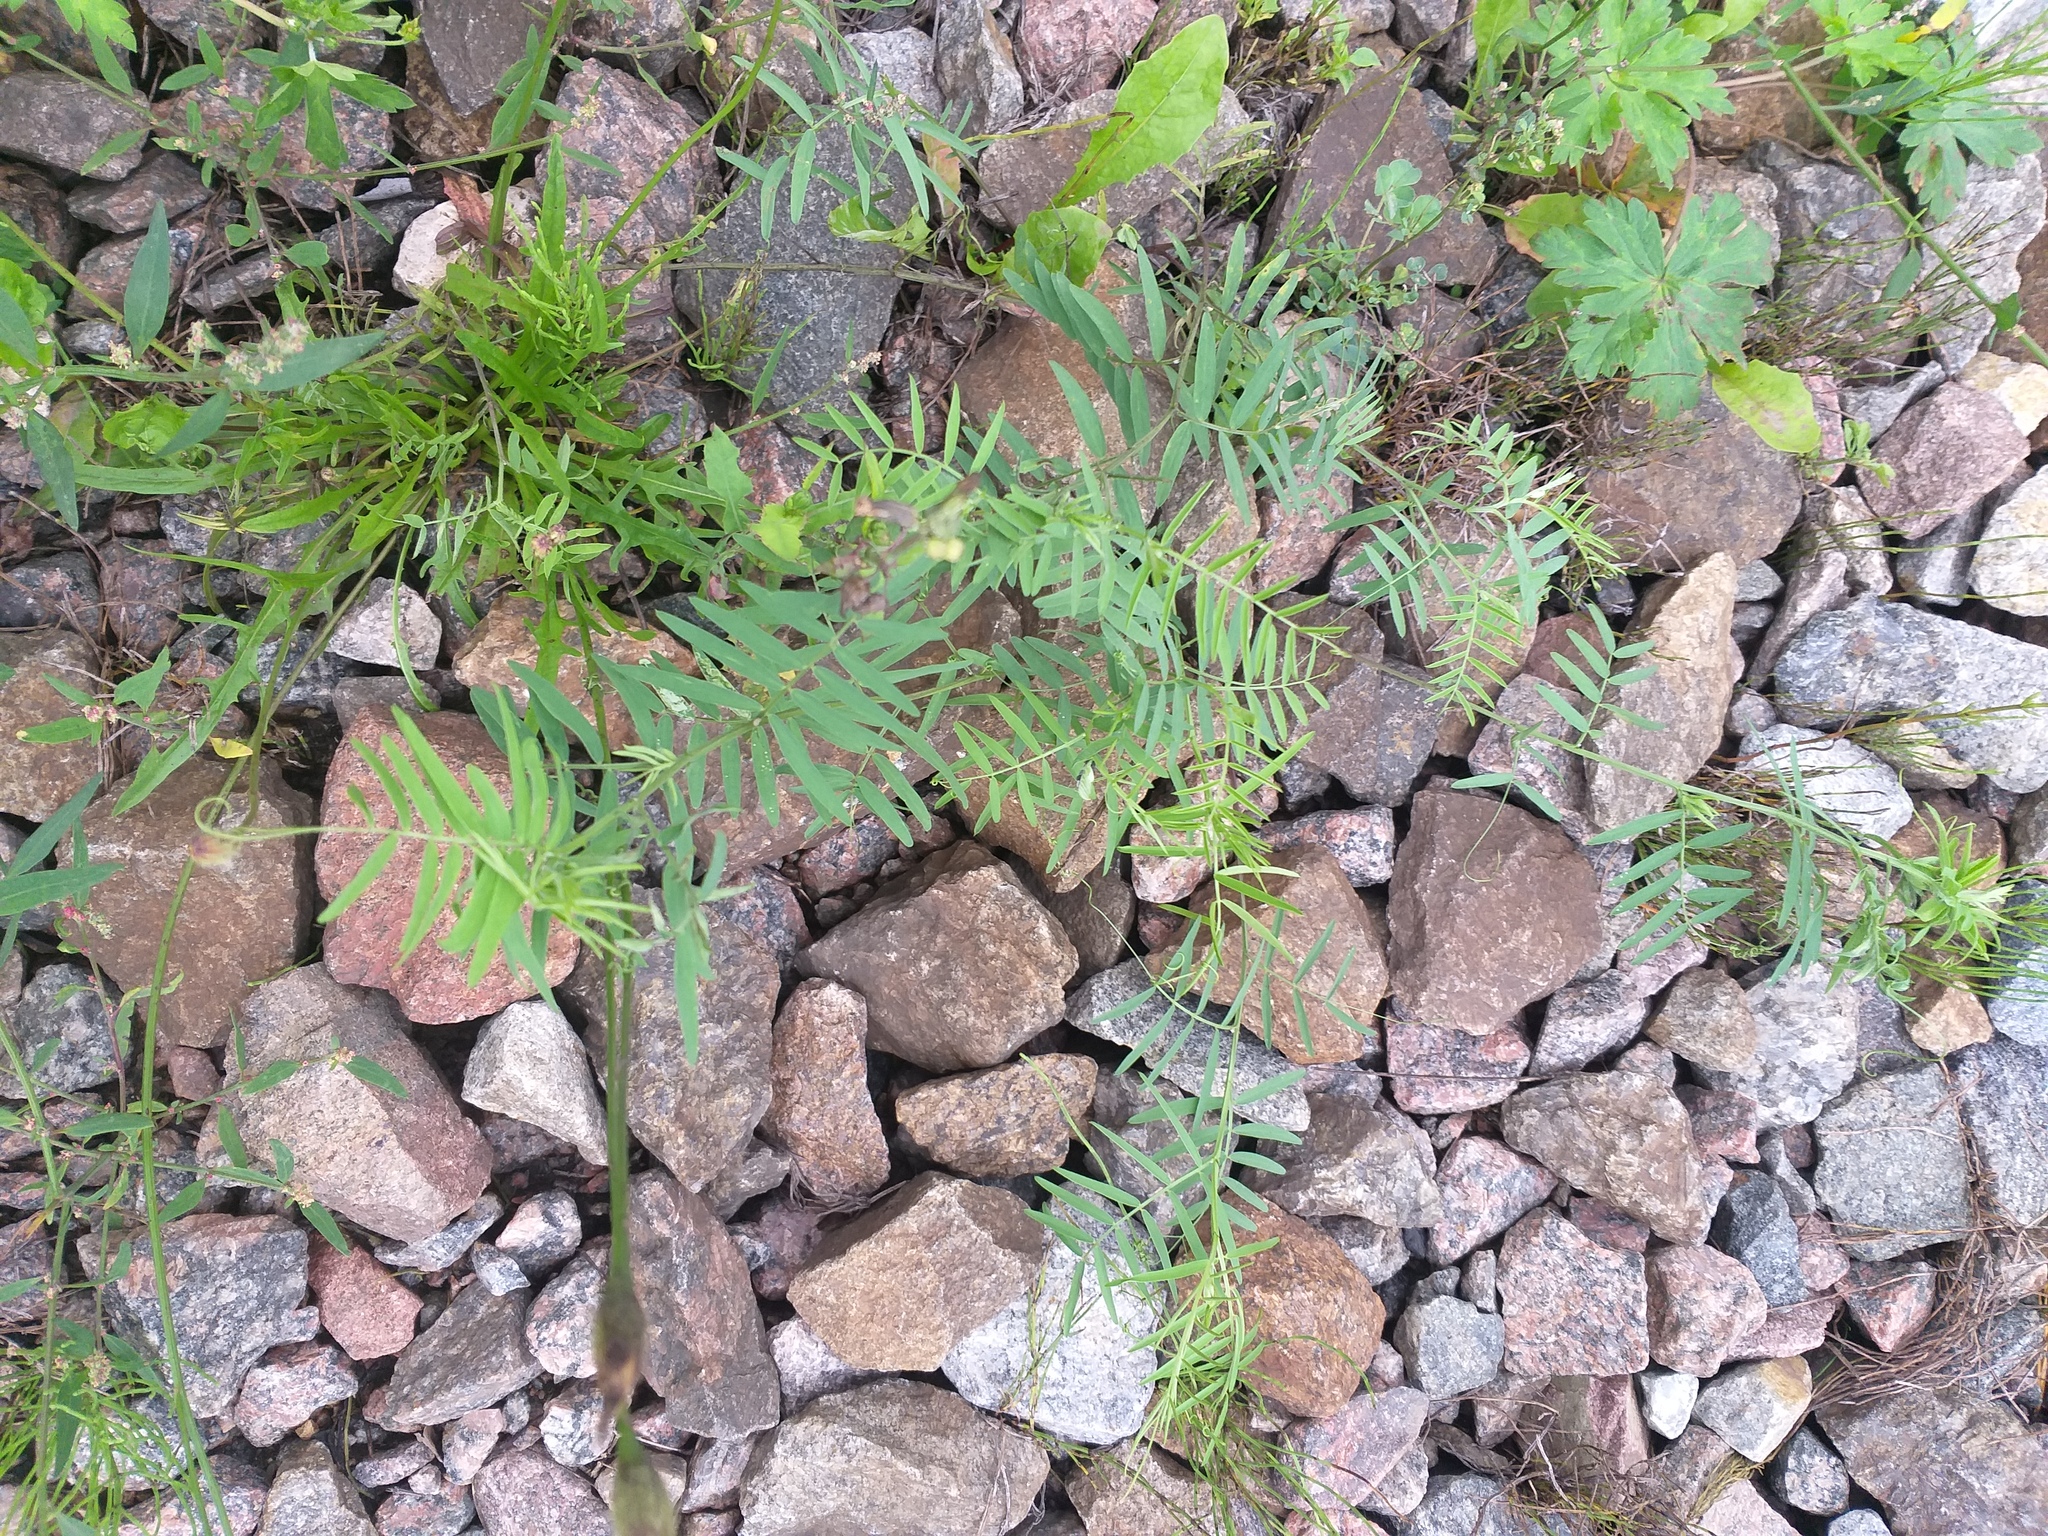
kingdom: Plantae
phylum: Tracheophyta
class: Magnoliopsida
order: Fabales
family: Fabaceae
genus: Vicia
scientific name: Vicia hirsuta
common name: Tiny vetch
